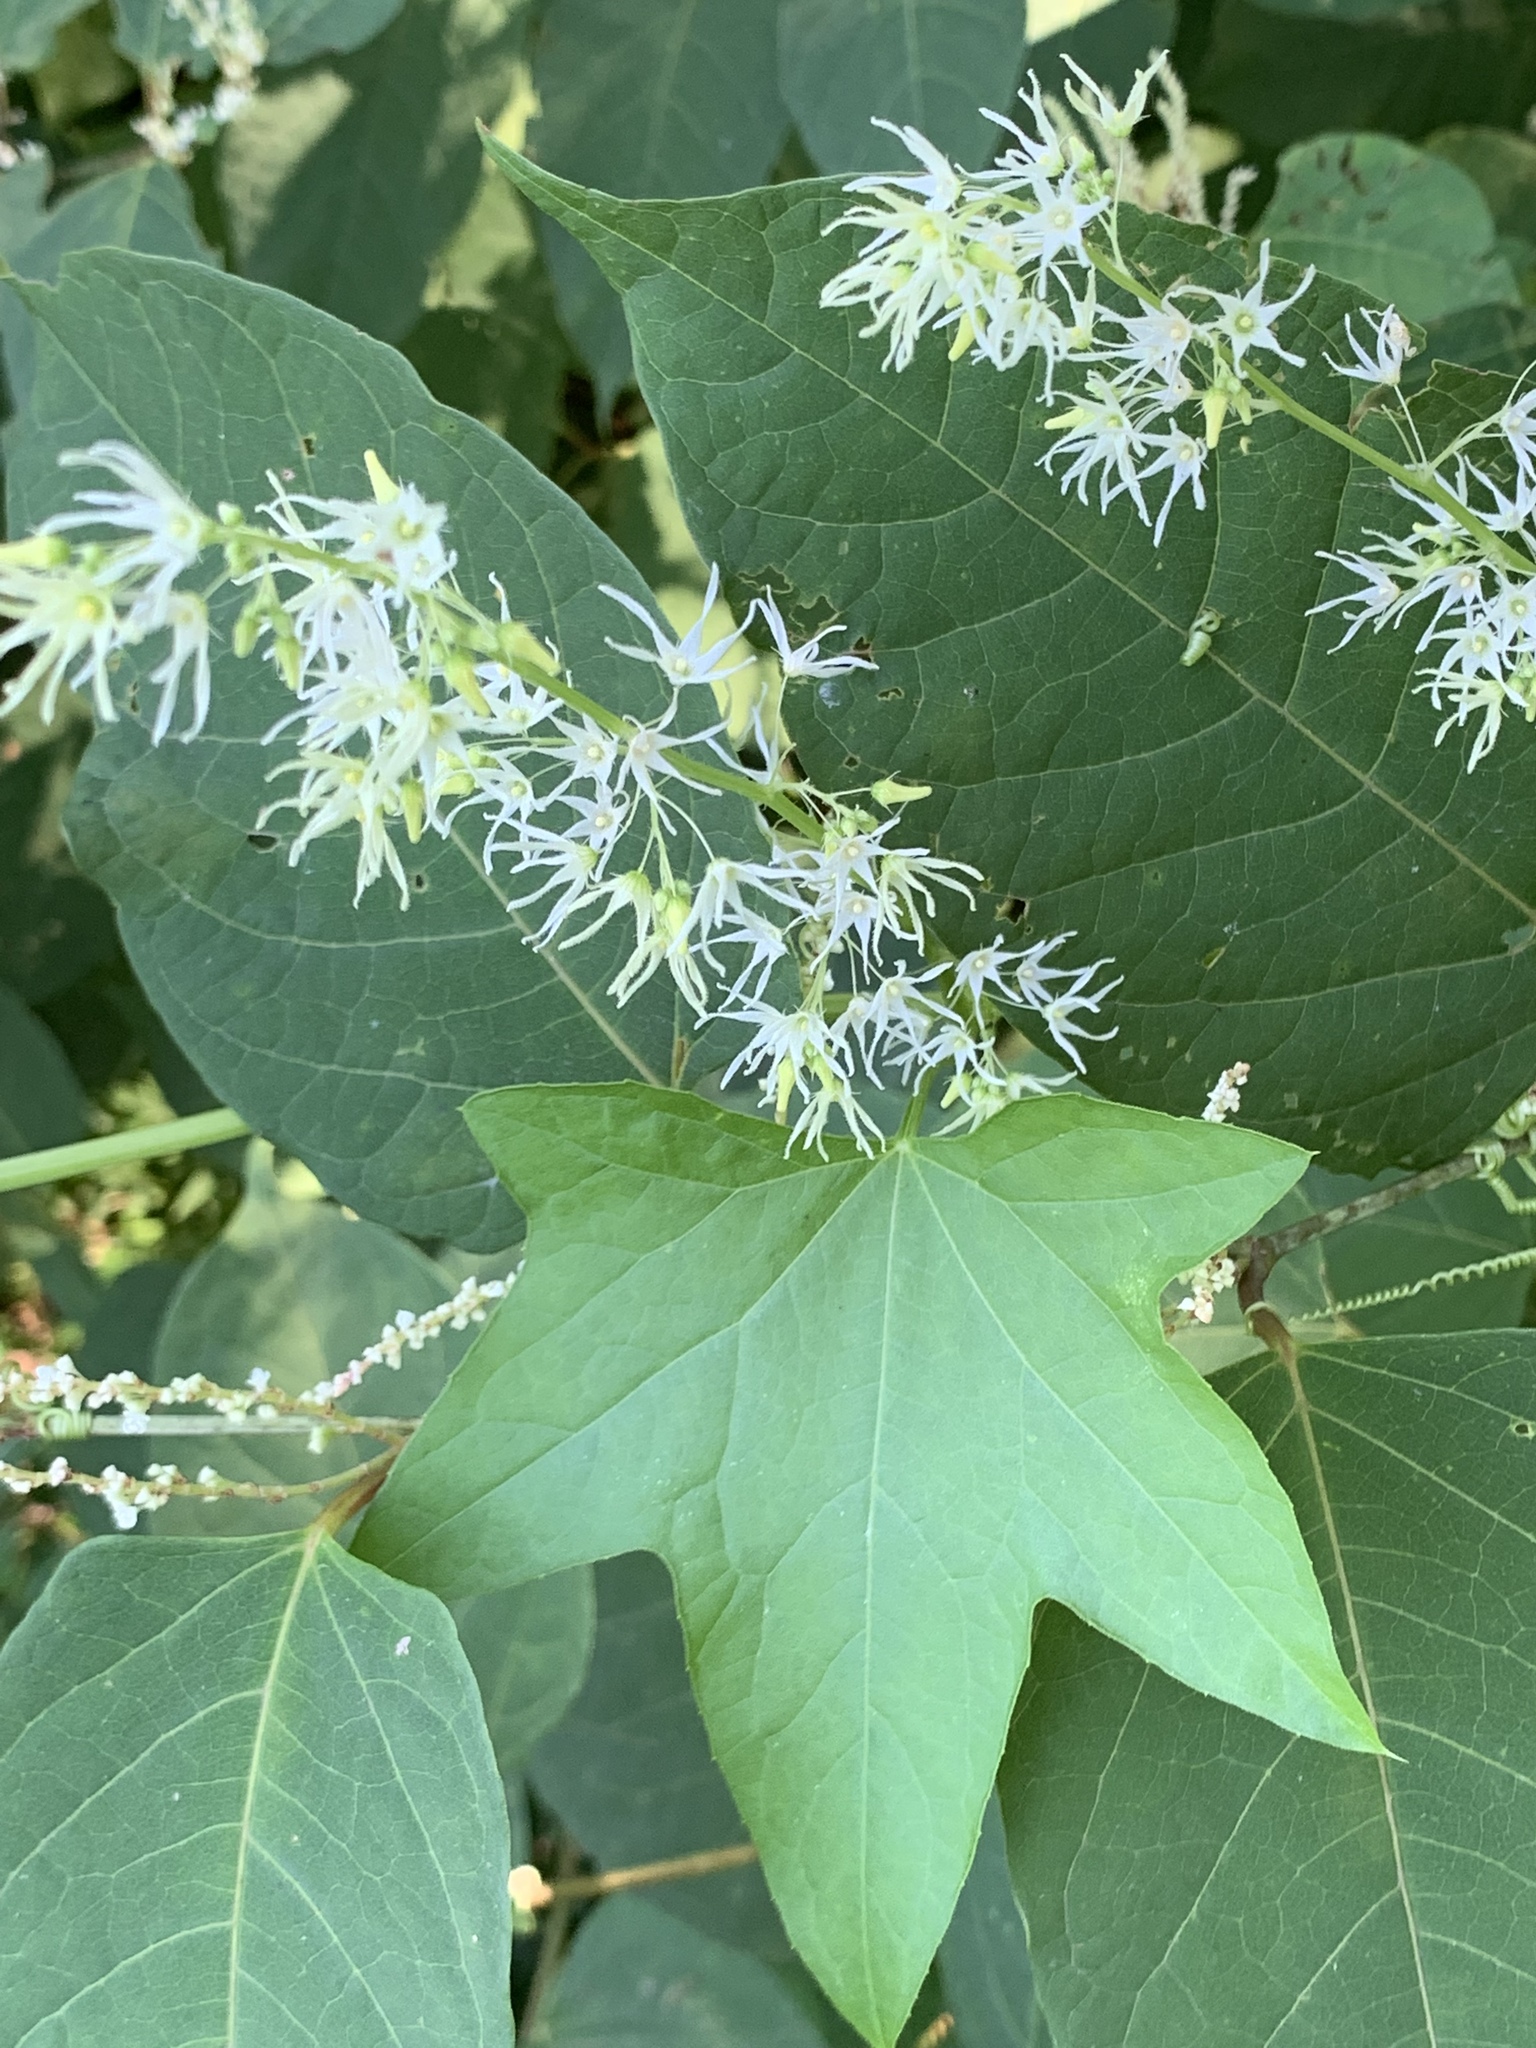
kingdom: Plantae
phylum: Tracheophyta
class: Magnoliopsida
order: Cucurbitales
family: Cucurbitaceae
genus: Echinocystis
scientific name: Echinocystis lobata
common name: Wild cucumber
